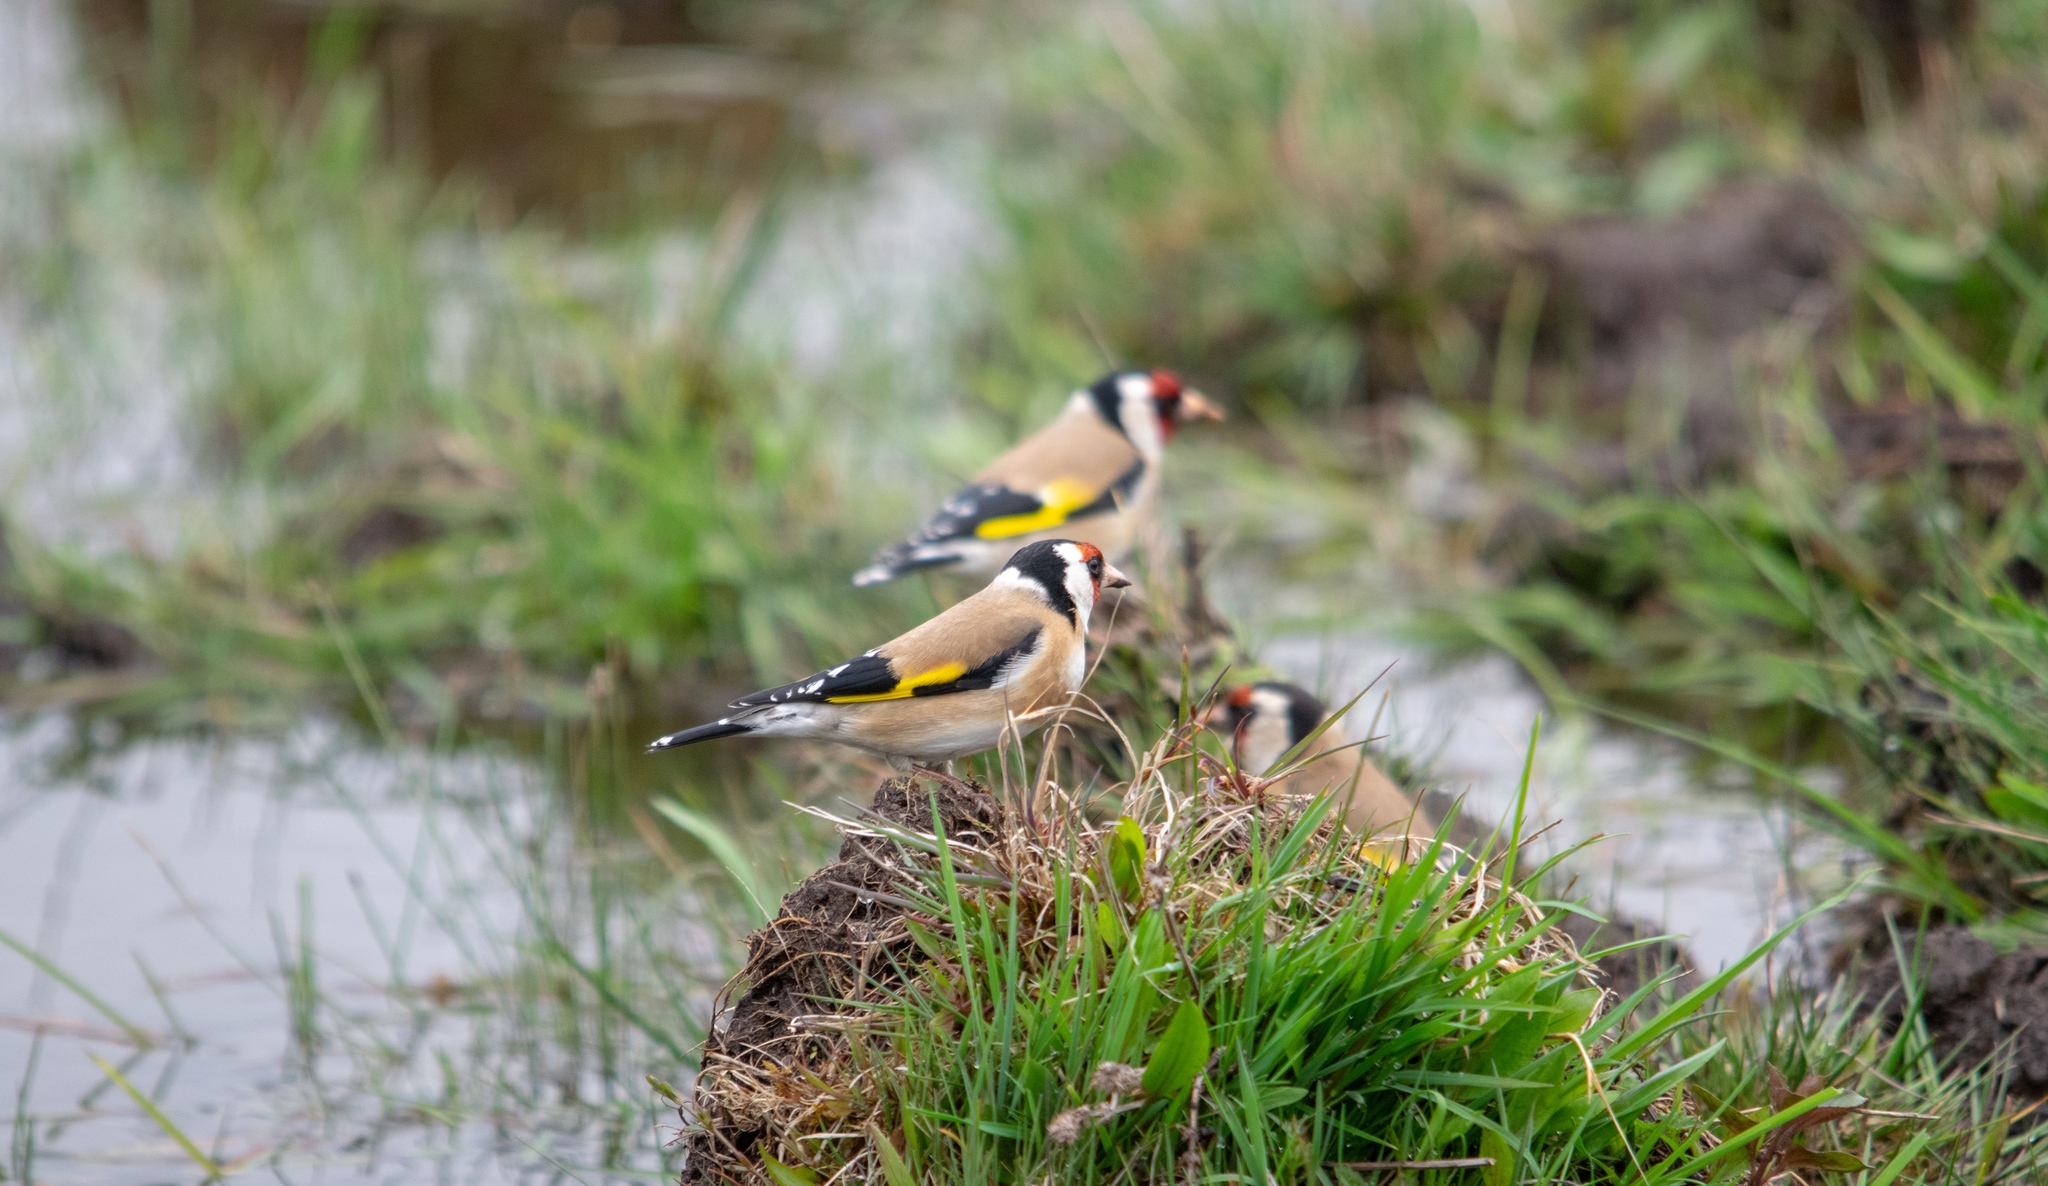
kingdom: Animalia
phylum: Chordata
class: Aves
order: Passeriformes
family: Fringillidae
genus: Carduelis
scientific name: Carduelis carduelis
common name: European goldfinch
